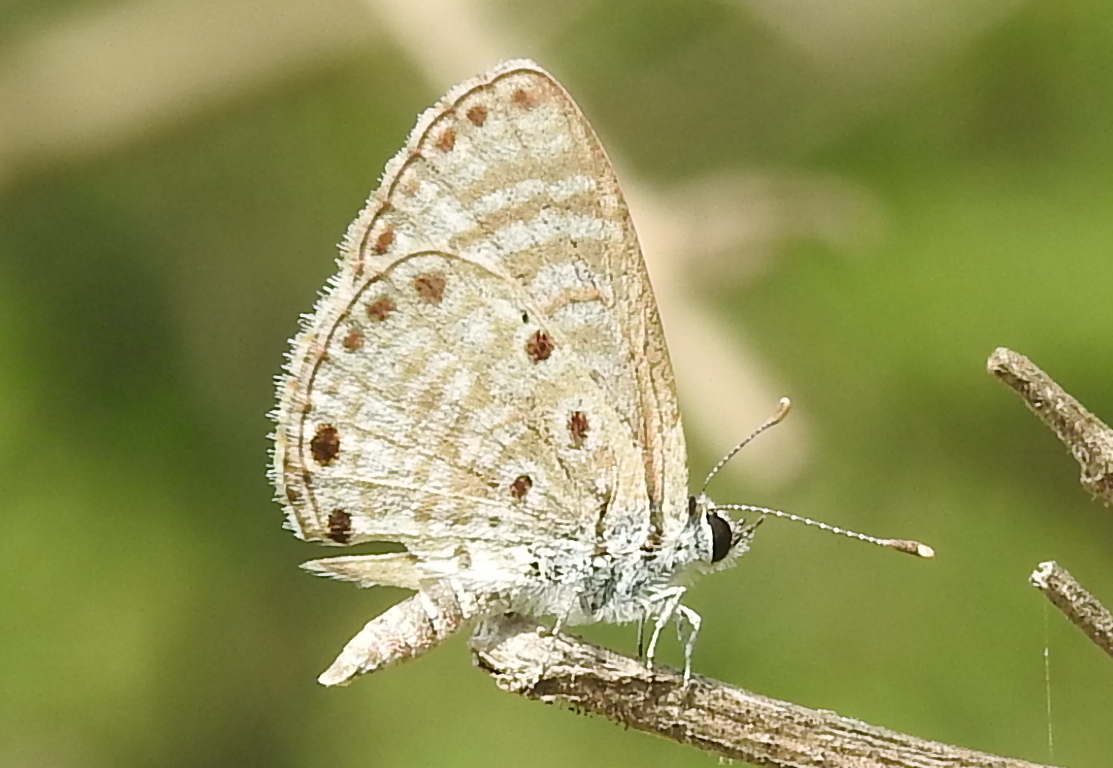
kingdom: Animalia
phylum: Arthropoda
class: Insecta
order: Lepidoptera
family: Lycaenidae
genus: Azanus
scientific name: Azanus jesous
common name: African babul blue
